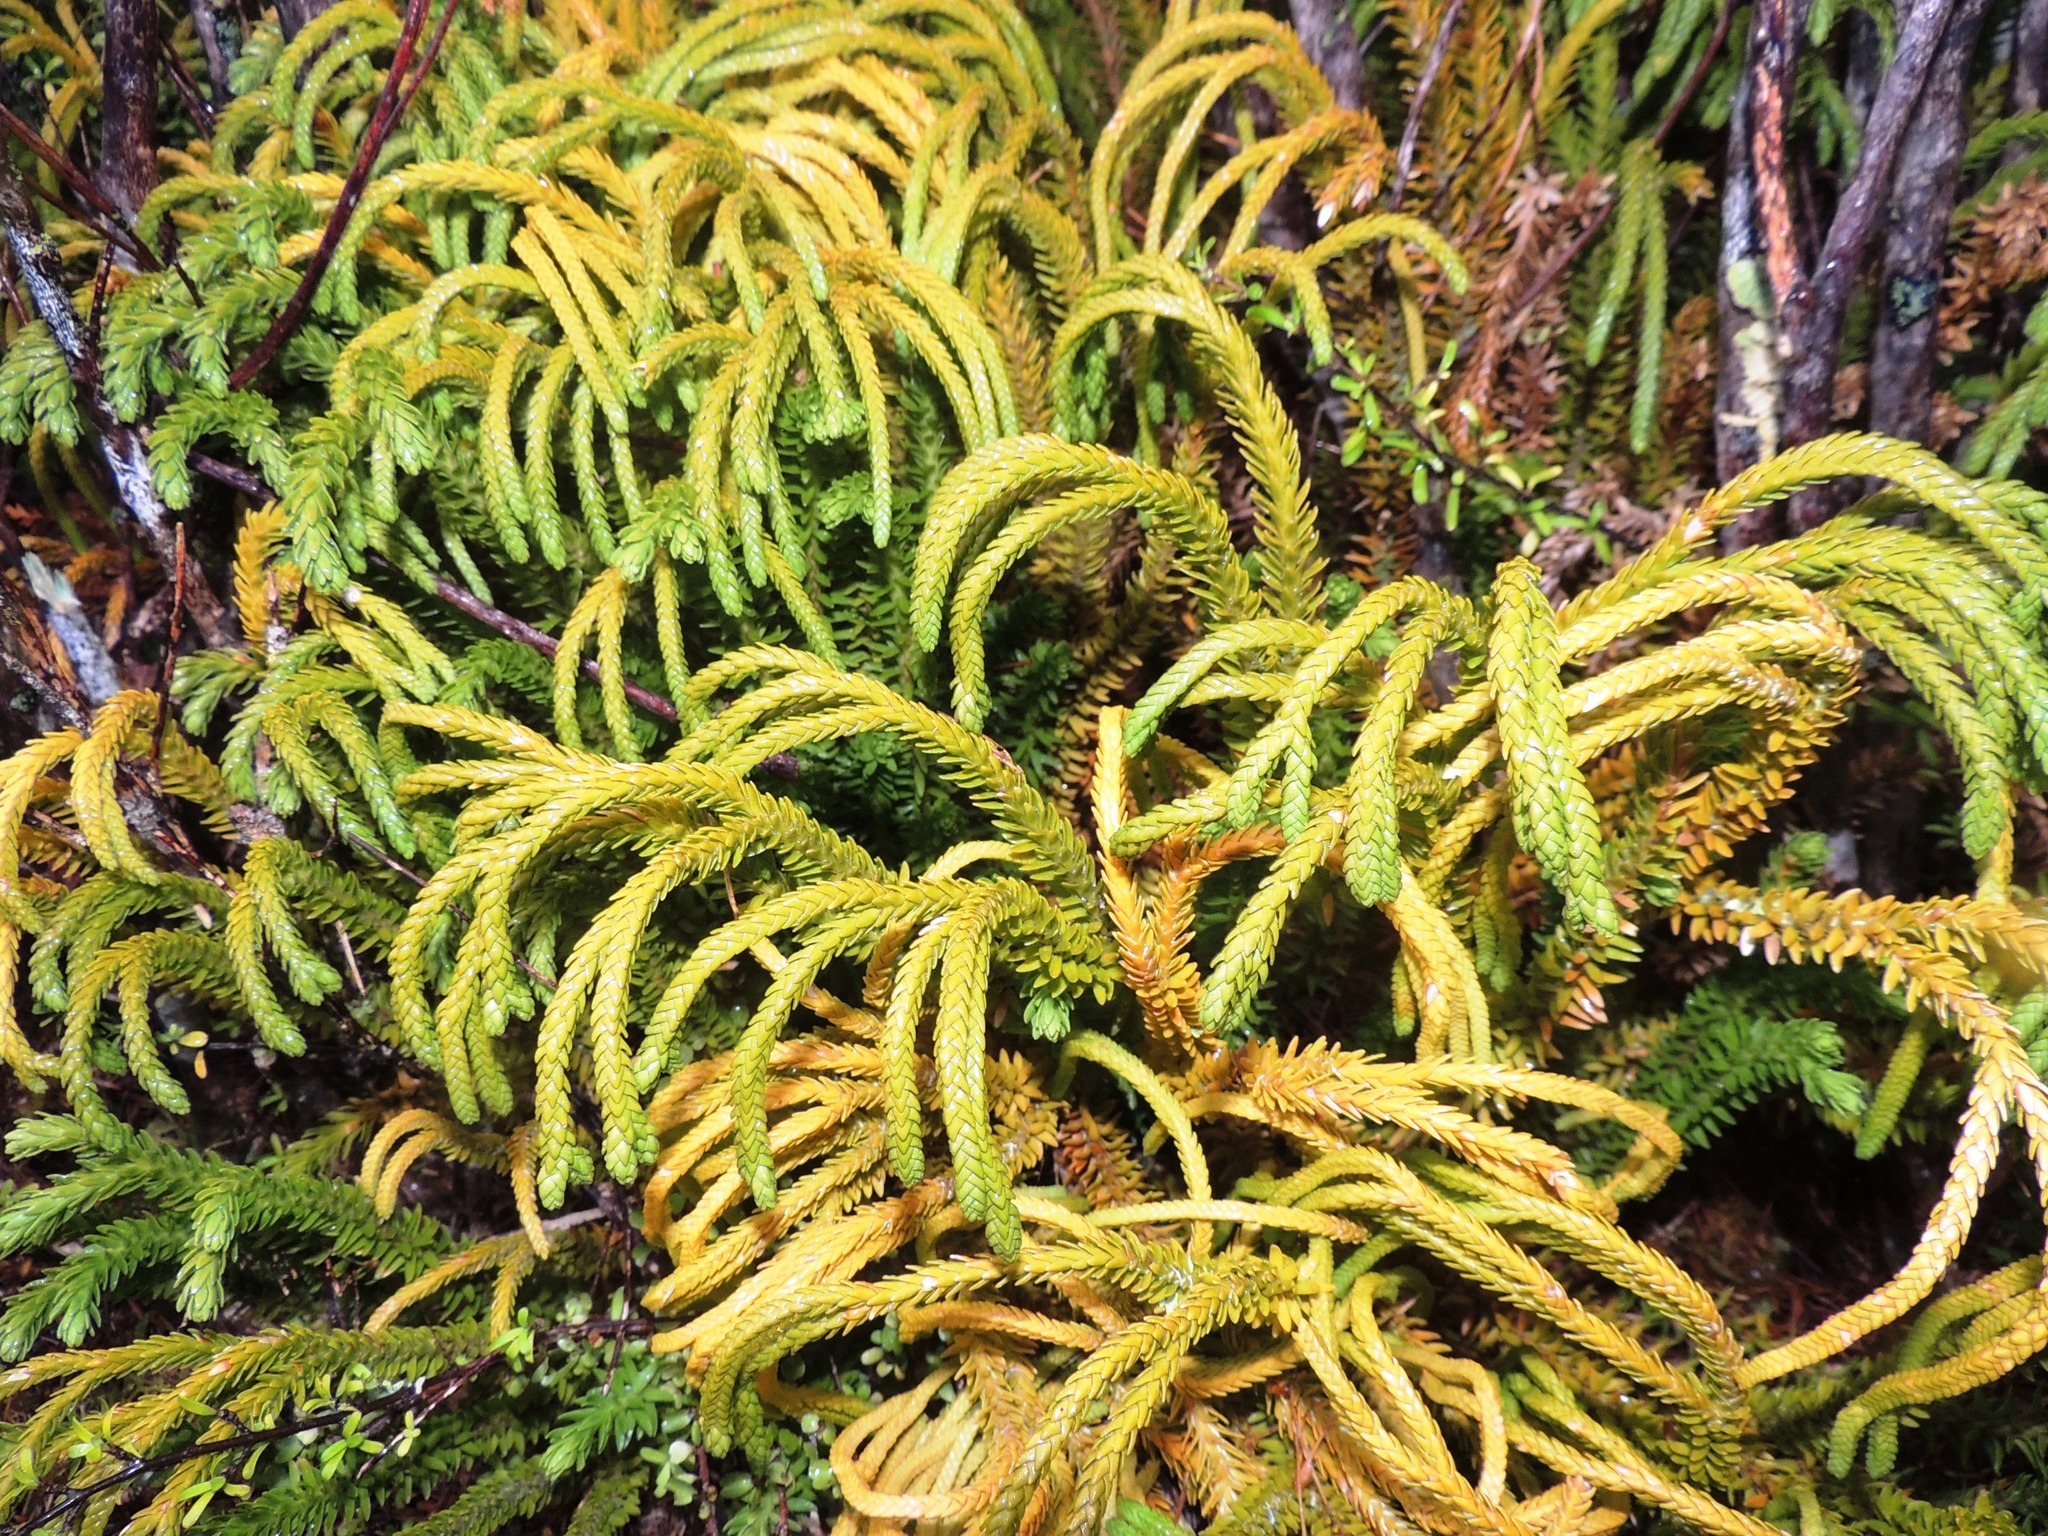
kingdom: Plantae
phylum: Tracheophyta
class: Lycopodiopsida
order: Lycopodiales
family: Lycopodiaceae
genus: Phlegmariurus
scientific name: Phlegmariurus varius
